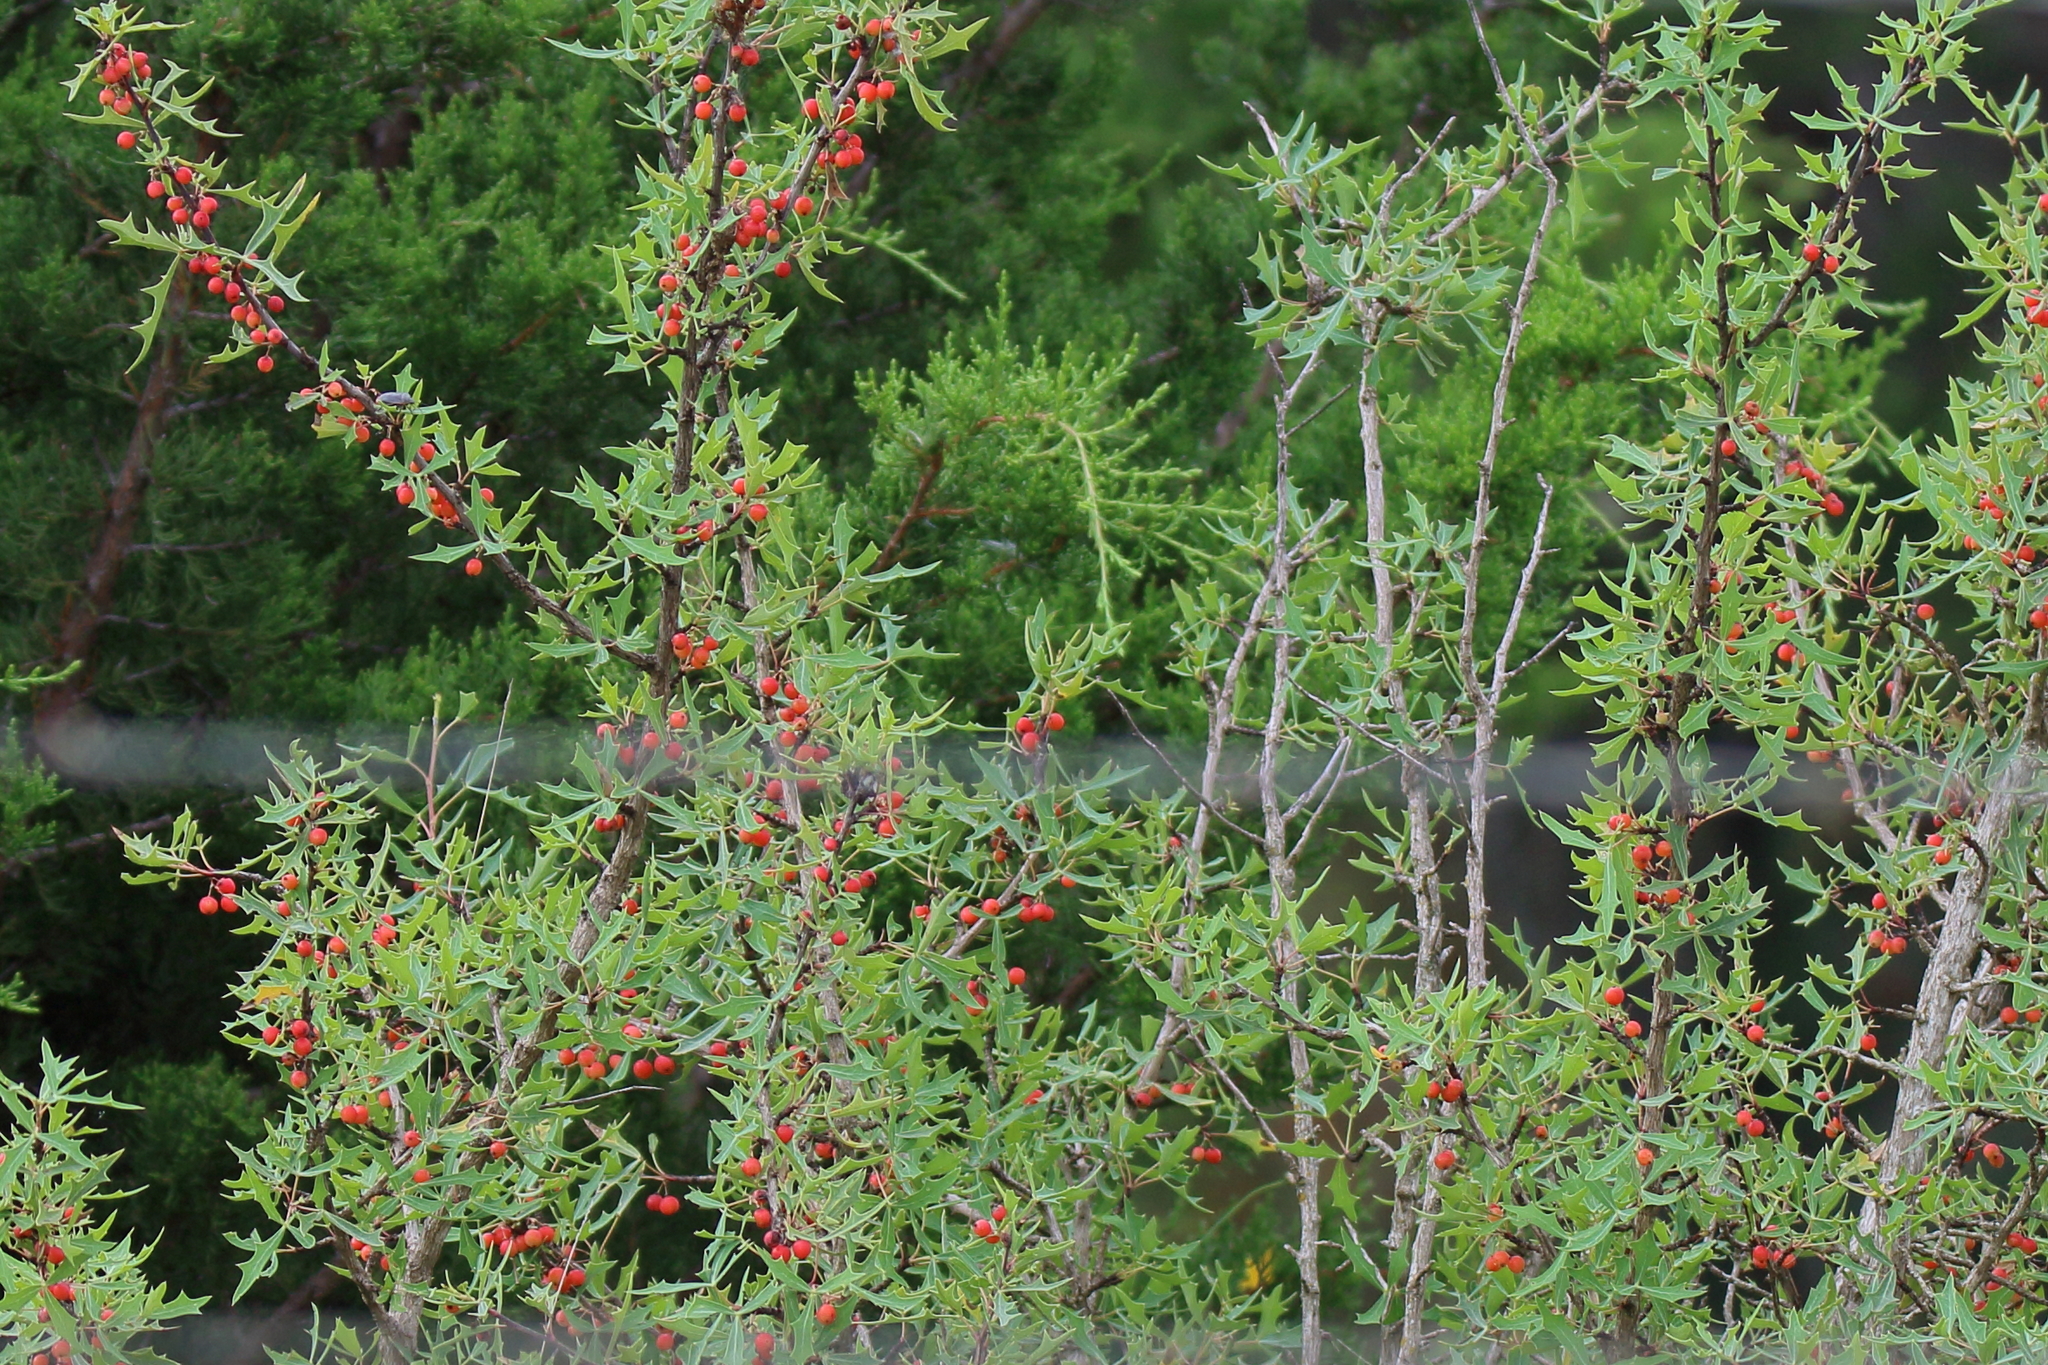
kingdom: Plantae
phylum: Tracheophyta
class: Magnoliopsida
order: Ranunculales
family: Berberidaceae
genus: Alloberberis
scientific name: Alloberberis trifoliolata
